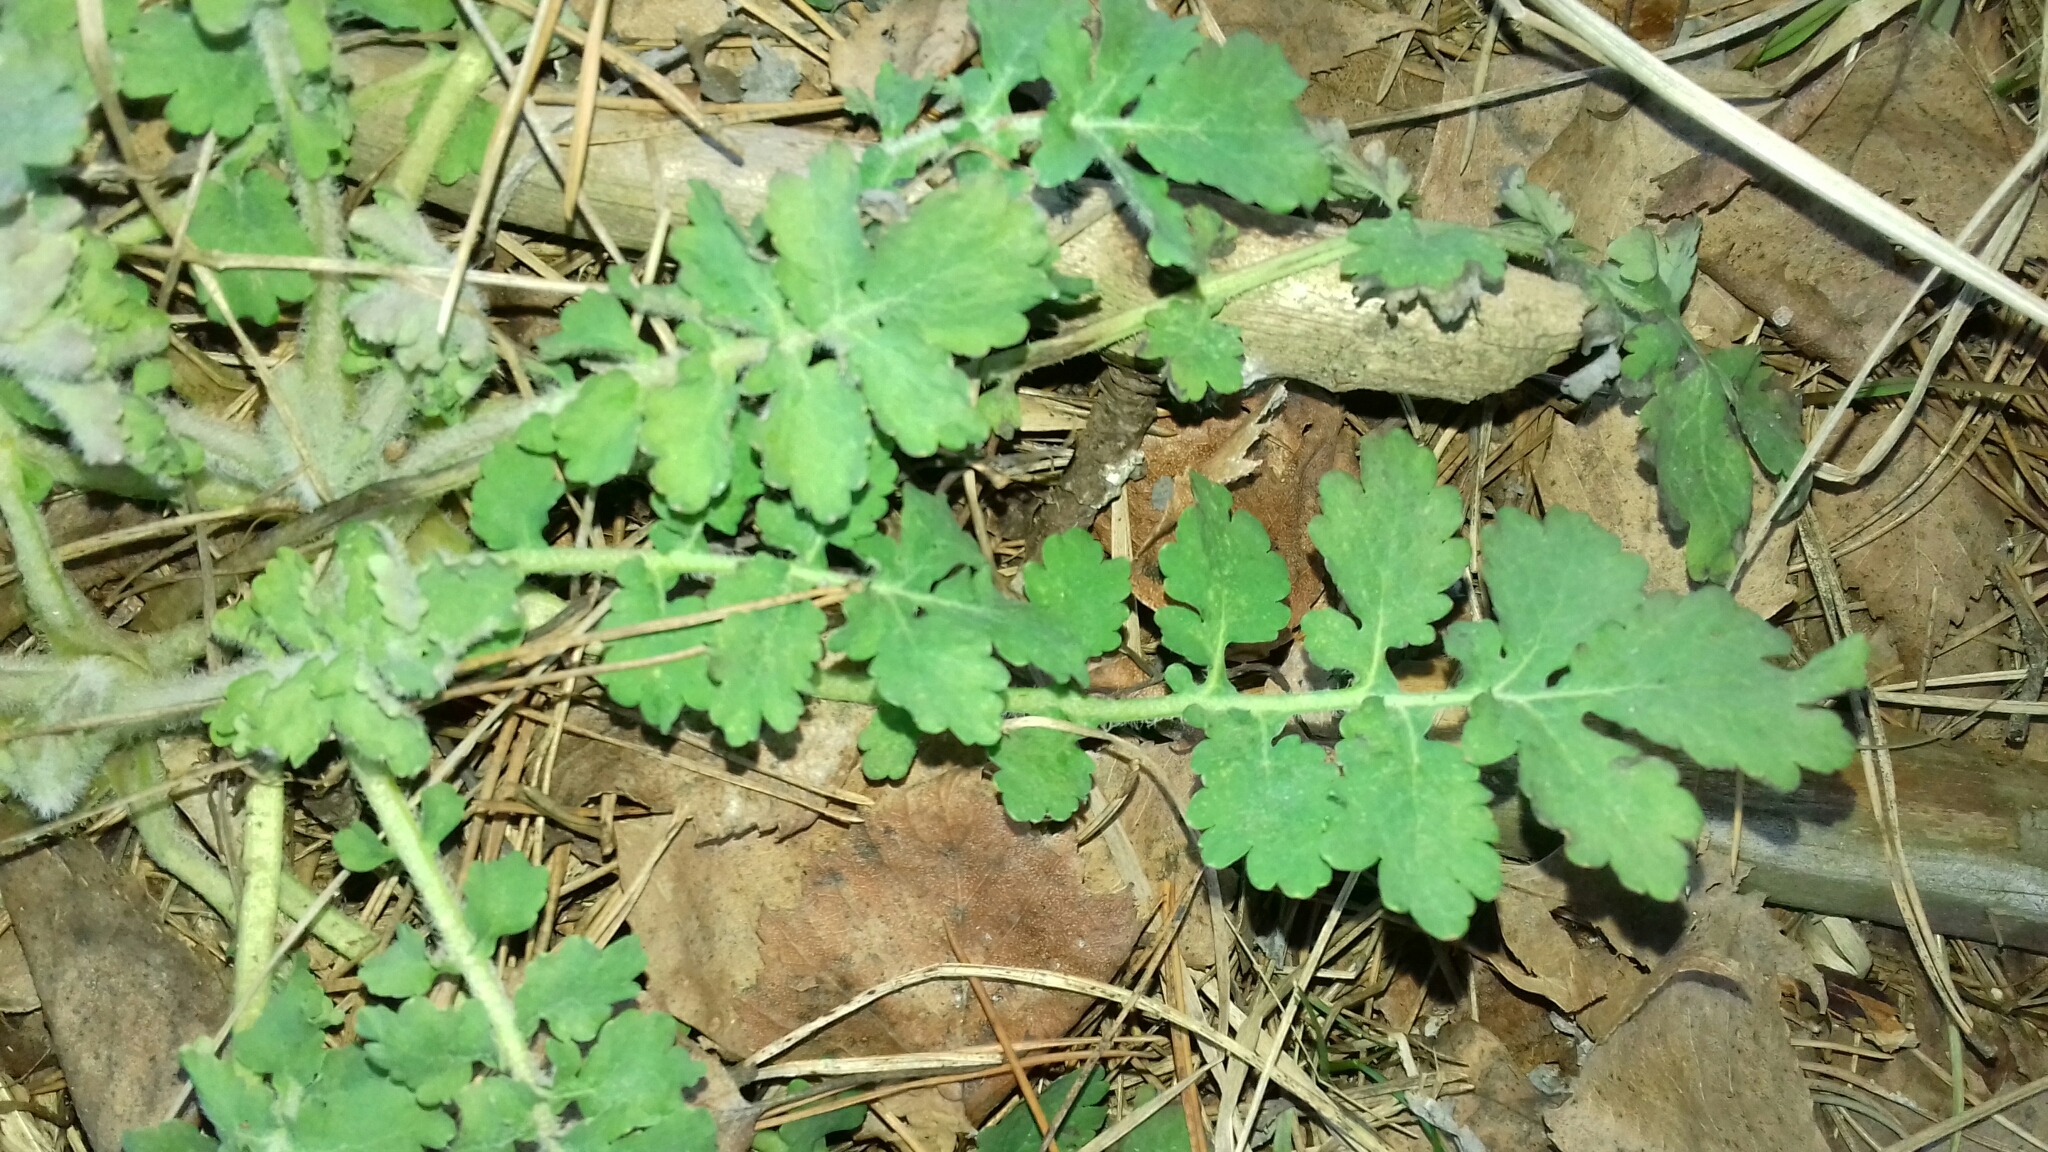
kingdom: Plantae
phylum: Tracheophyta
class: Magnoliopsida
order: Ranunculales
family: Papaveraceae
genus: Chelidonium
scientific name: Chelidonium majus
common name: Greater celandine
